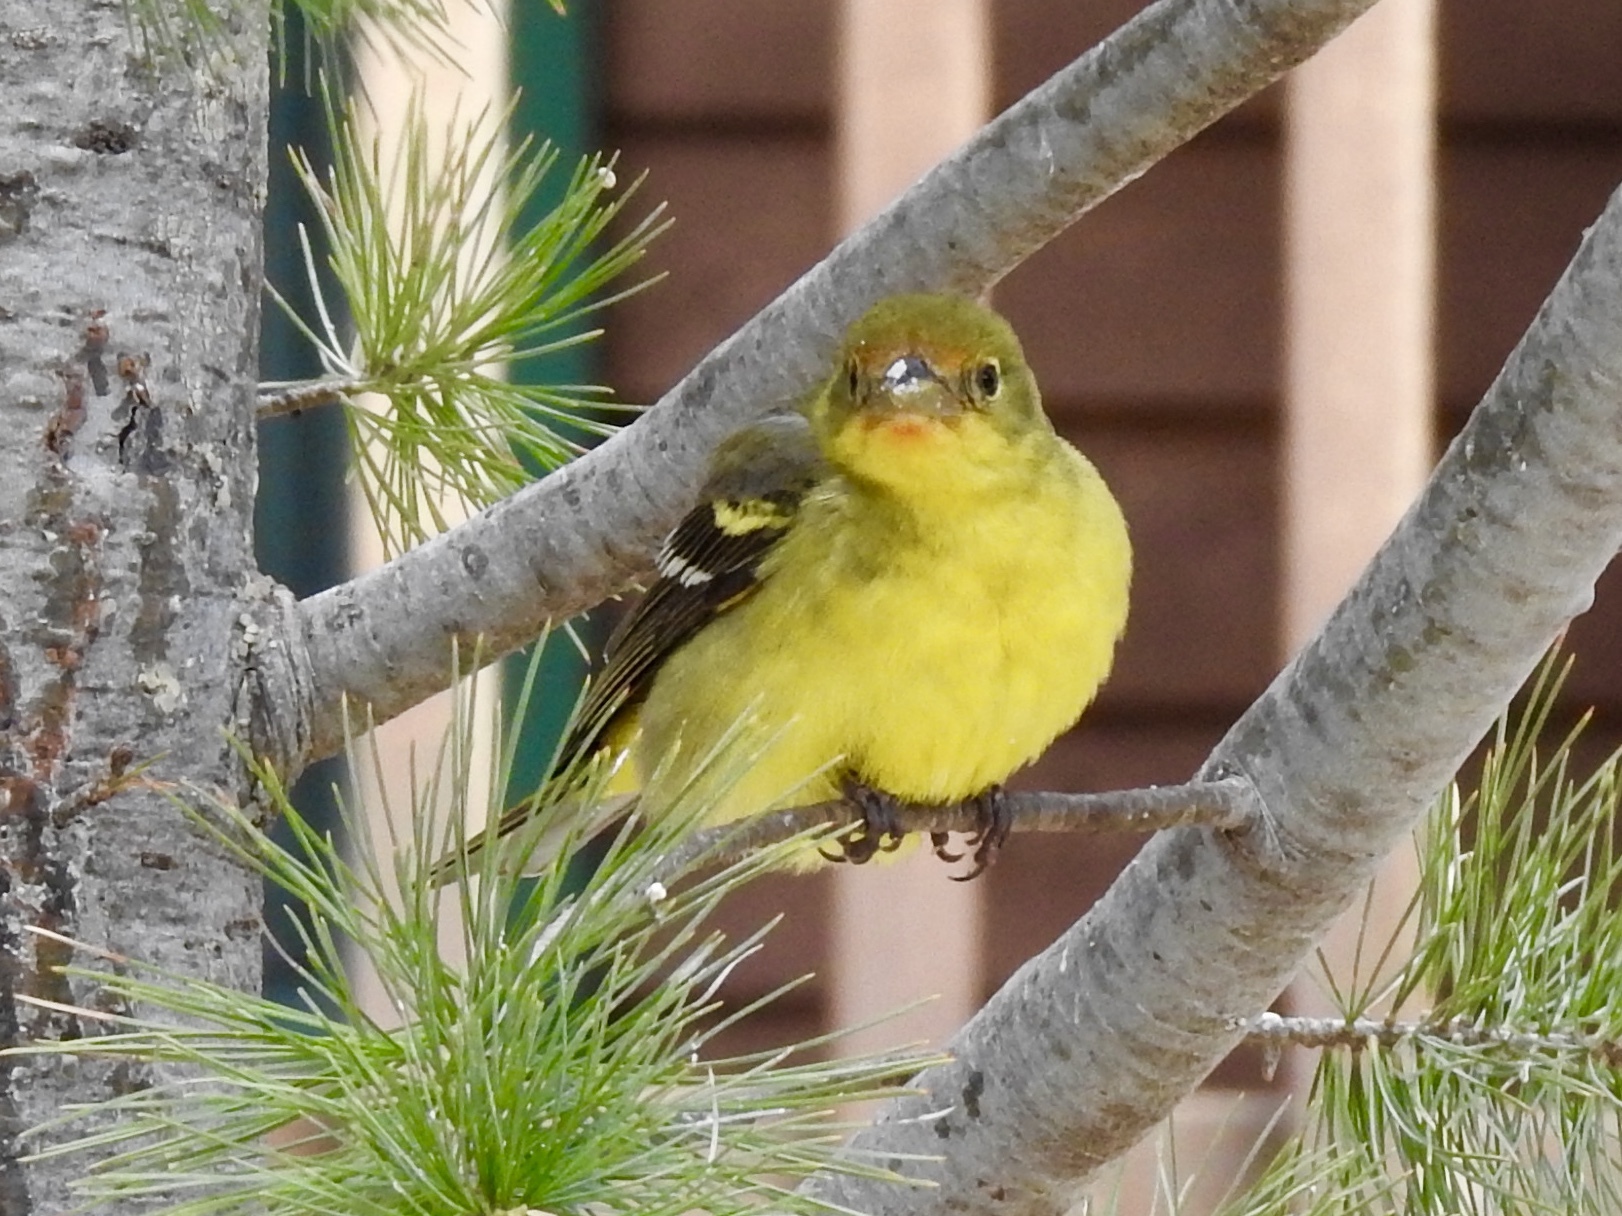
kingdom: Animalia
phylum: Chordata
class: Aves
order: Passeriformes
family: Cardinalidae
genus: Piranga
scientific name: Piranga ludoviciana
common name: Western tanager
